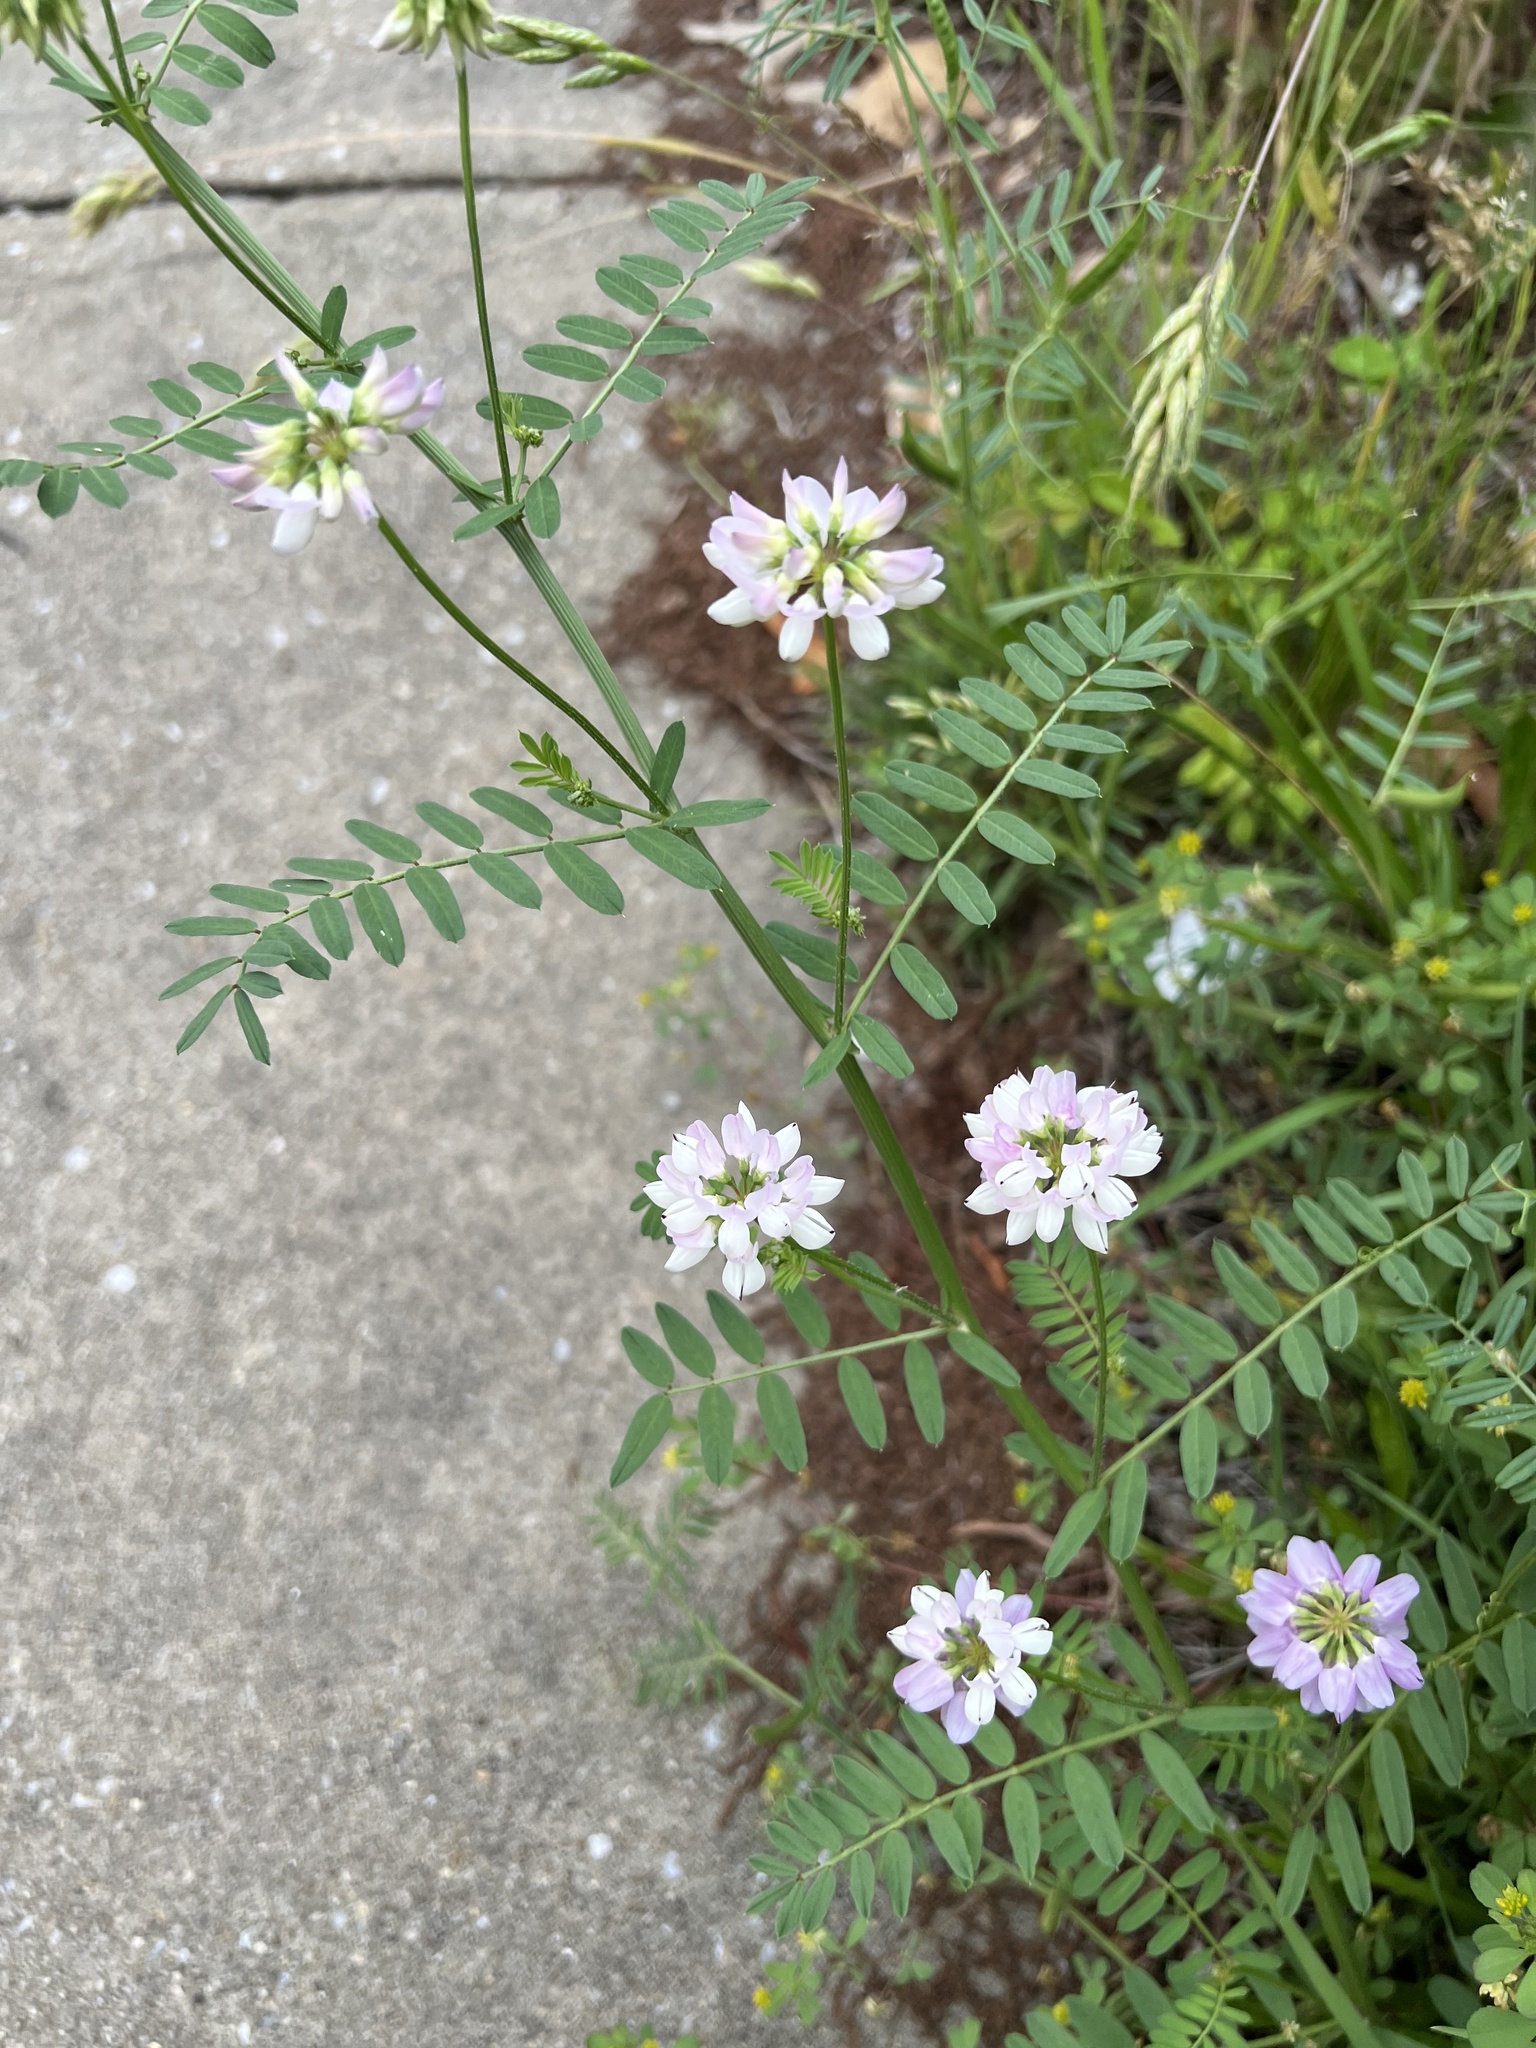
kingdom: Plantae
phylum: Tracheophyta
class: Magnoliopsida
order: Fabales
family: Fabaceae
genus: Coronilla
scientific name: Coronilla varia
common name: Crownvetch
